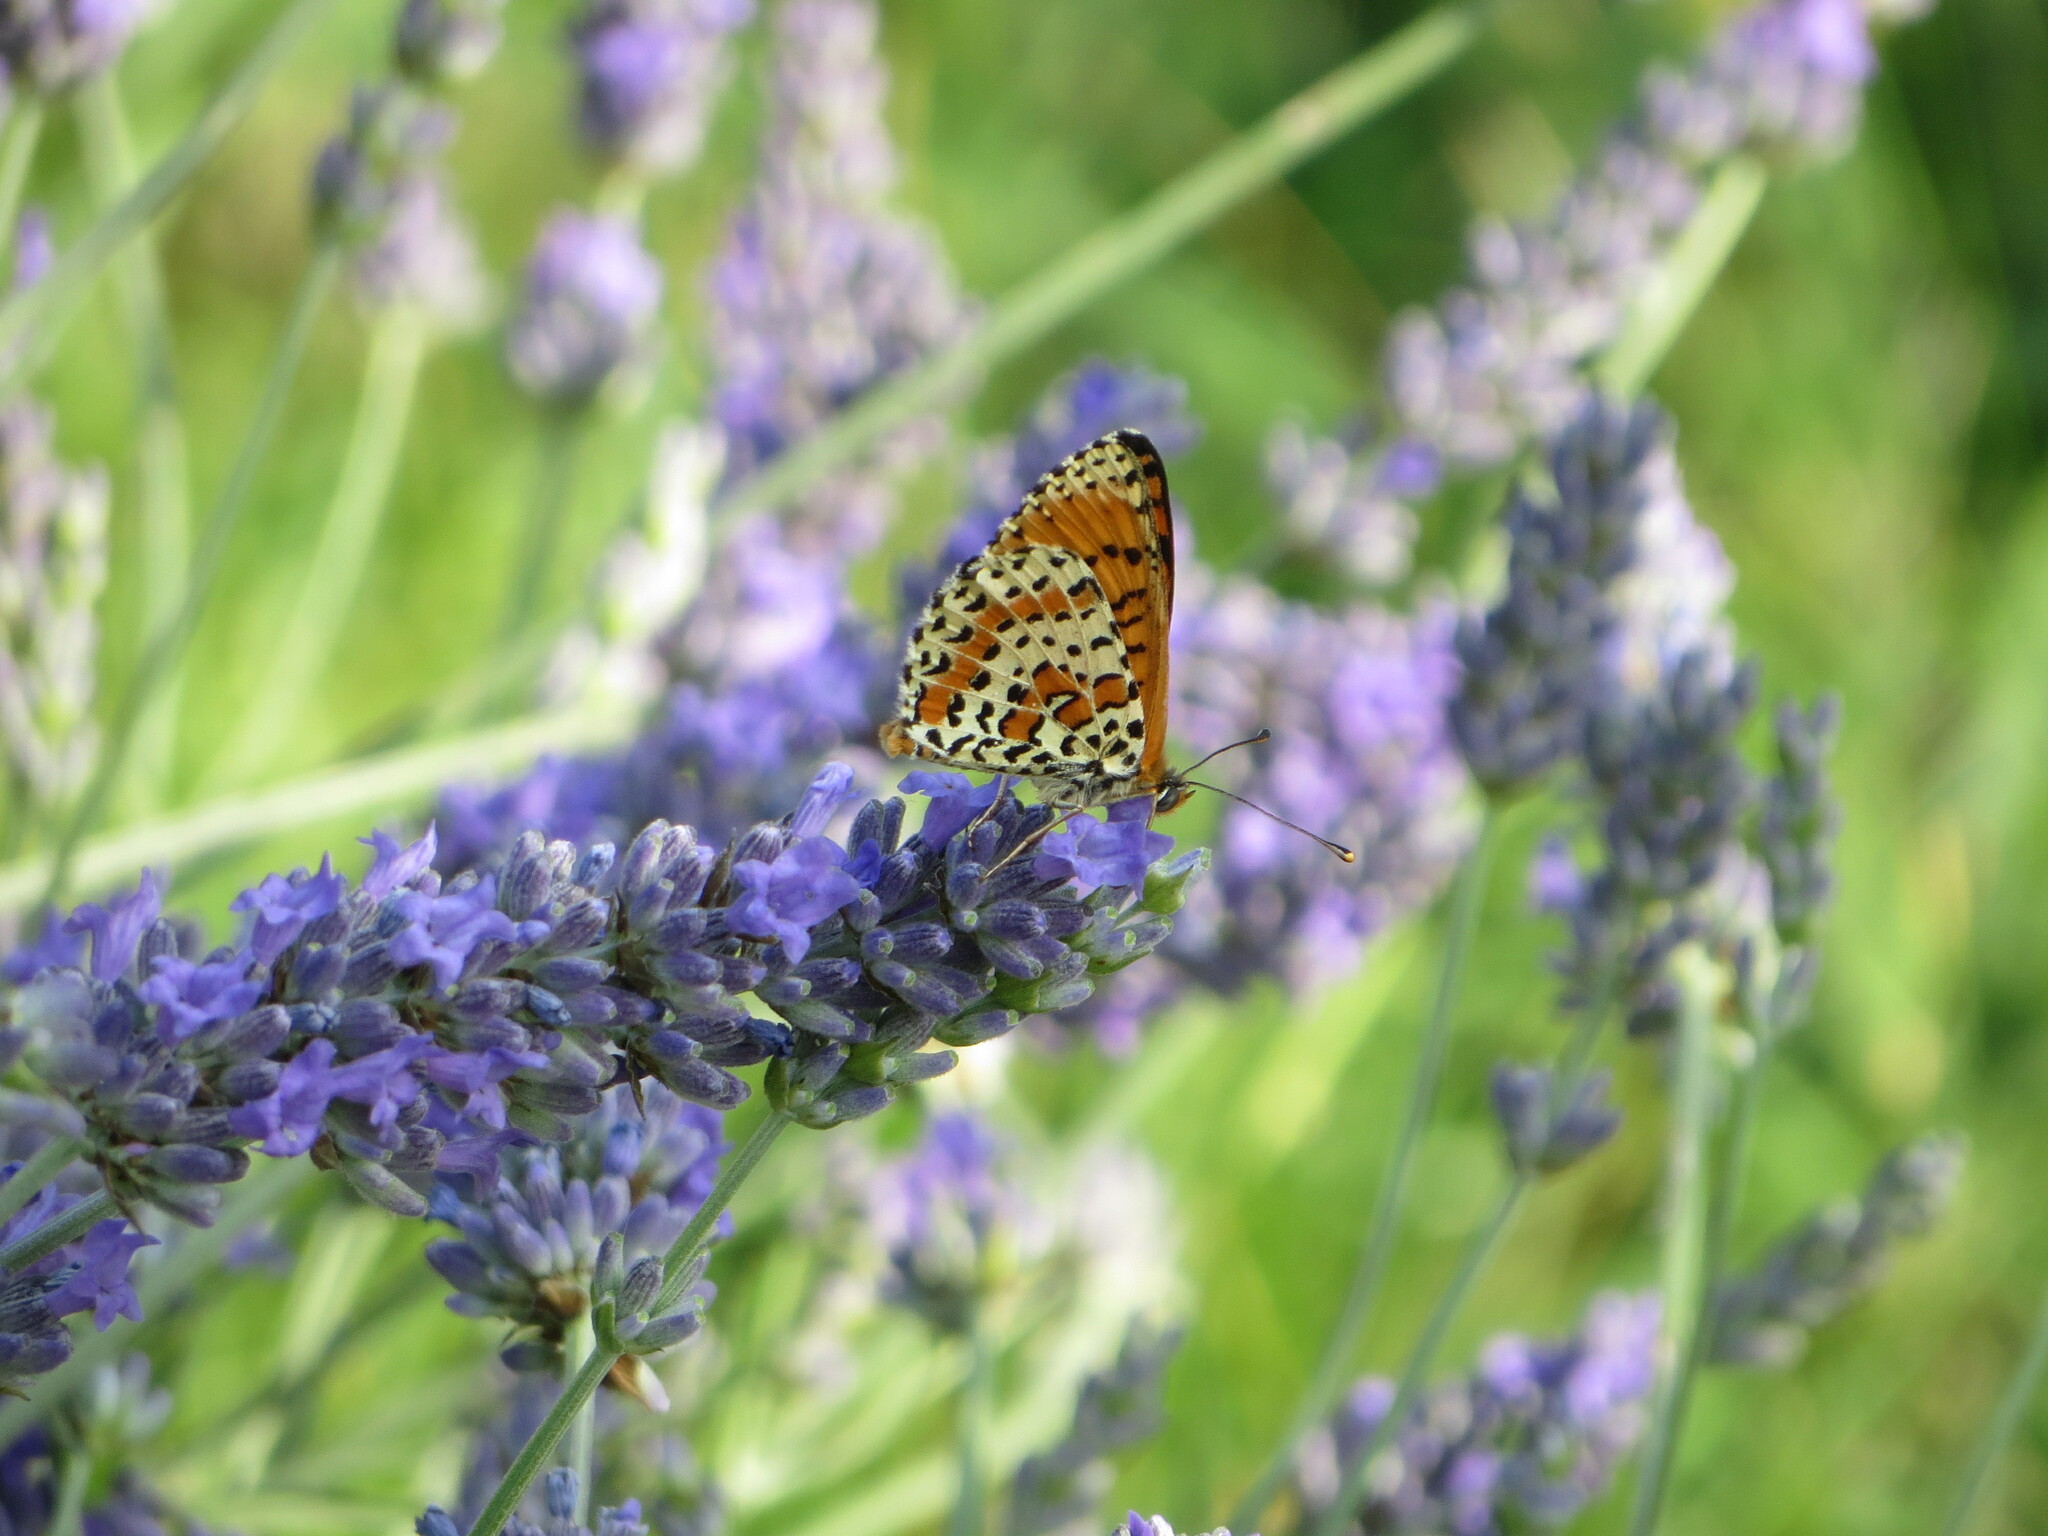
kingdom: Animalia
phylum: Arthropoda
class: Insecta
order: Lepidoptera
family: Nymphalidae
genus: Melitaea
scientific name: Melitaea didyma
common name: Spotted fritillary
